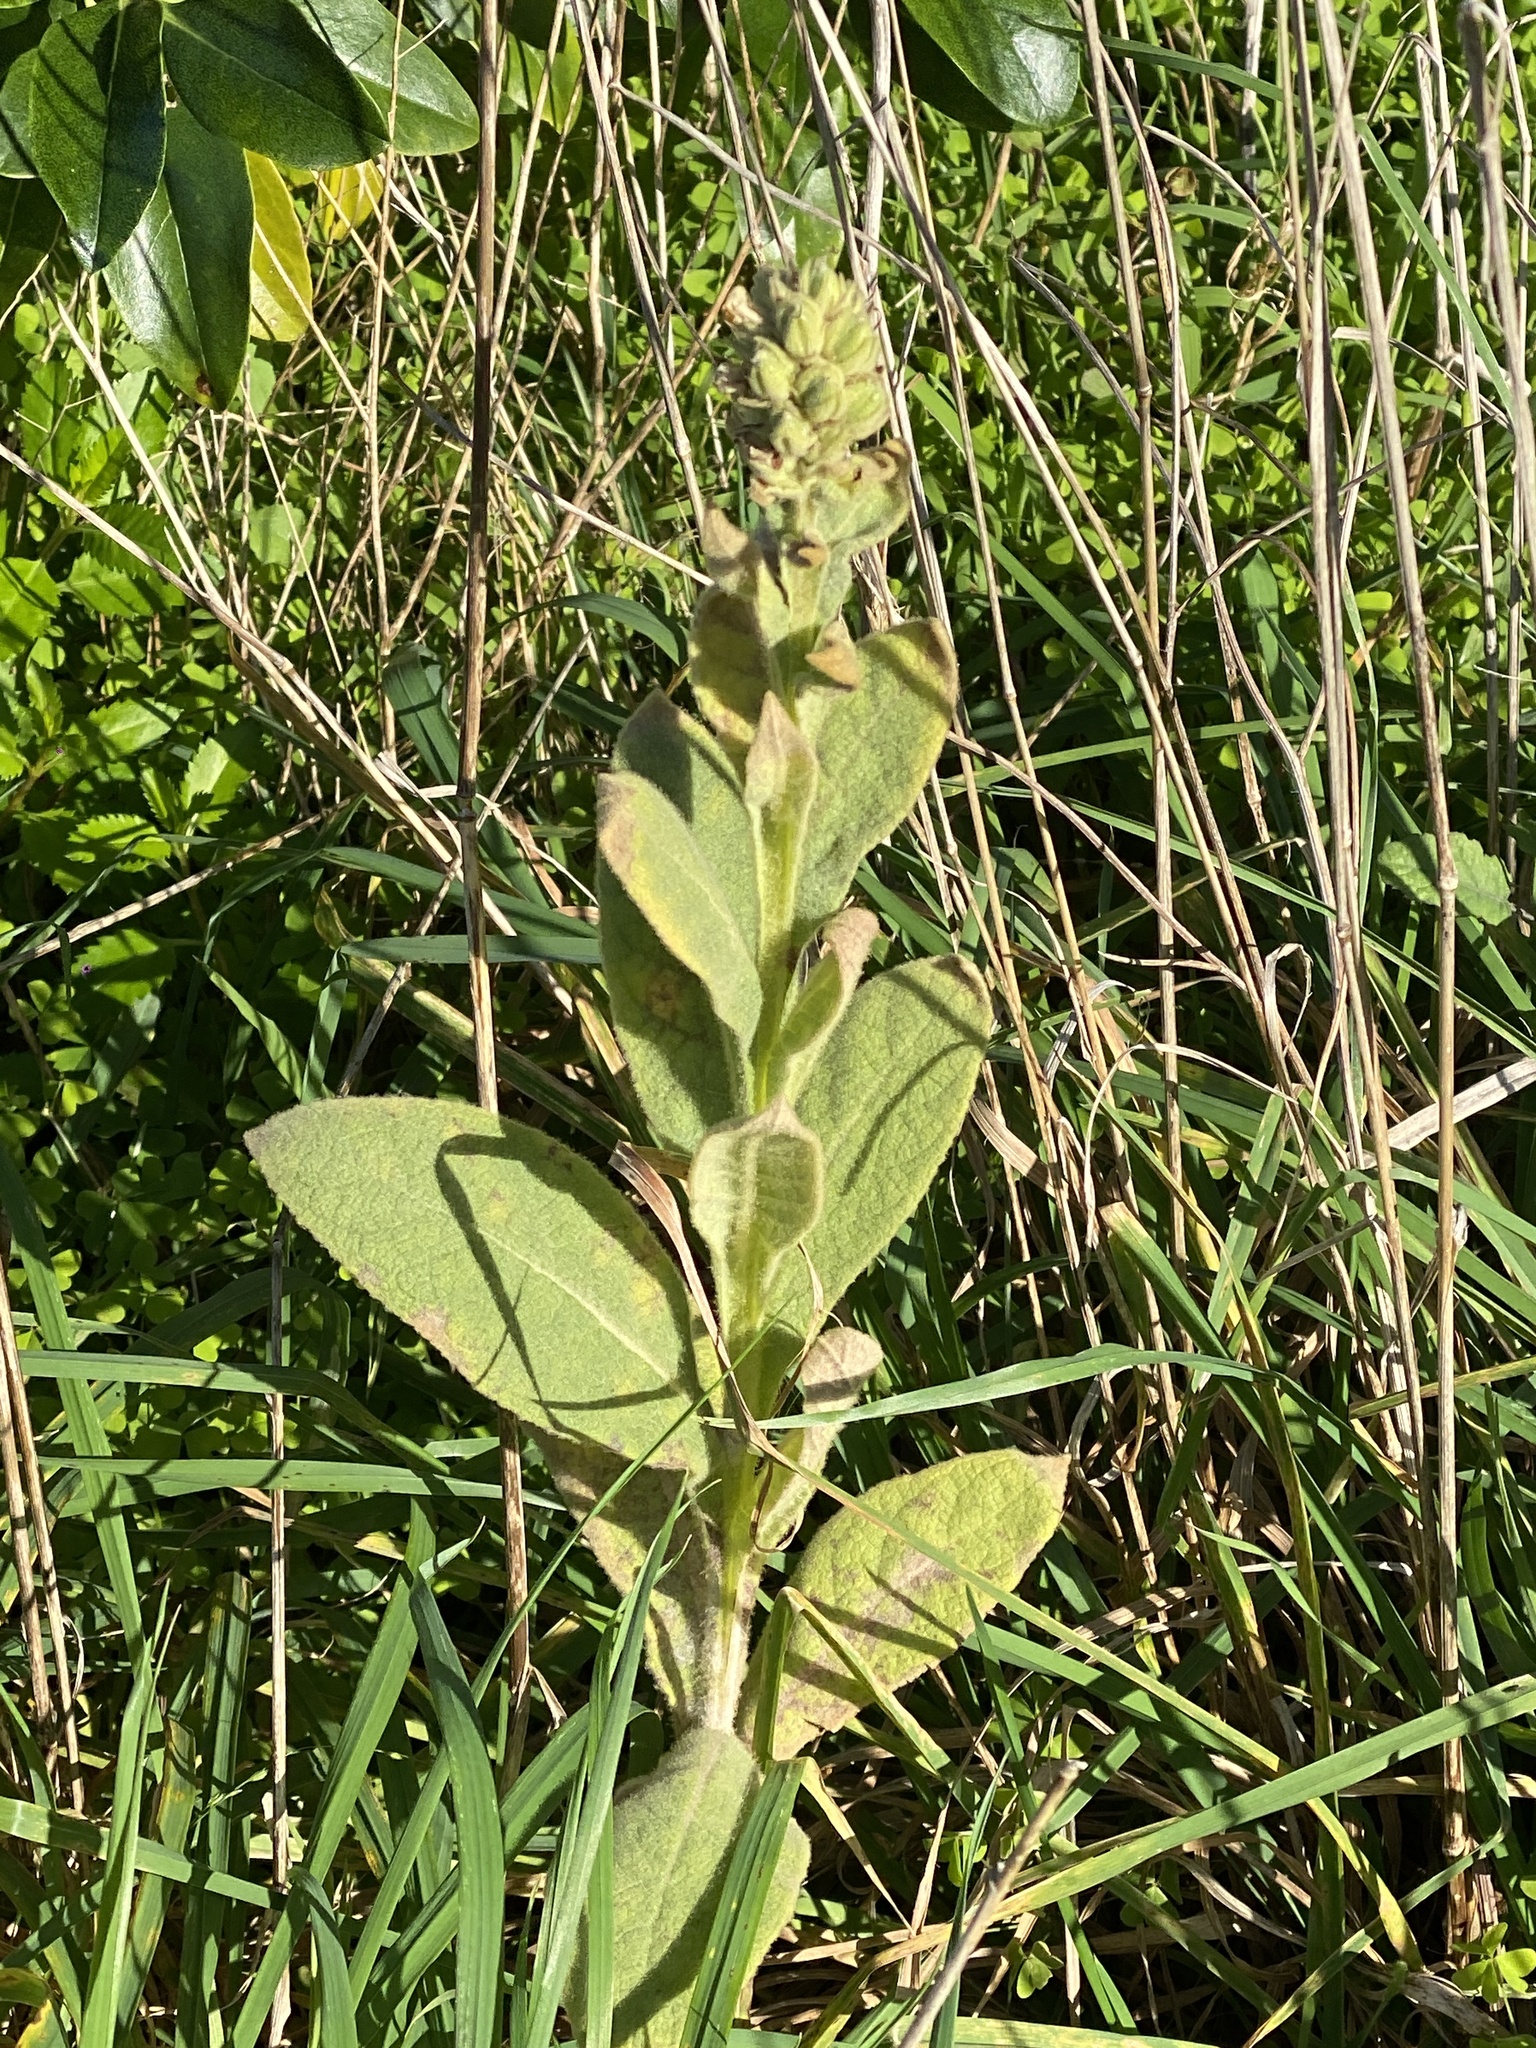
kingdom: Plantae
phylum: Tracheophyta
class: Magnoliopsida
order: Lamiales
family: Scrophulariaceae
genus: Verbascum
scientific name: Verbascum thapsus
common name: Common mullein
